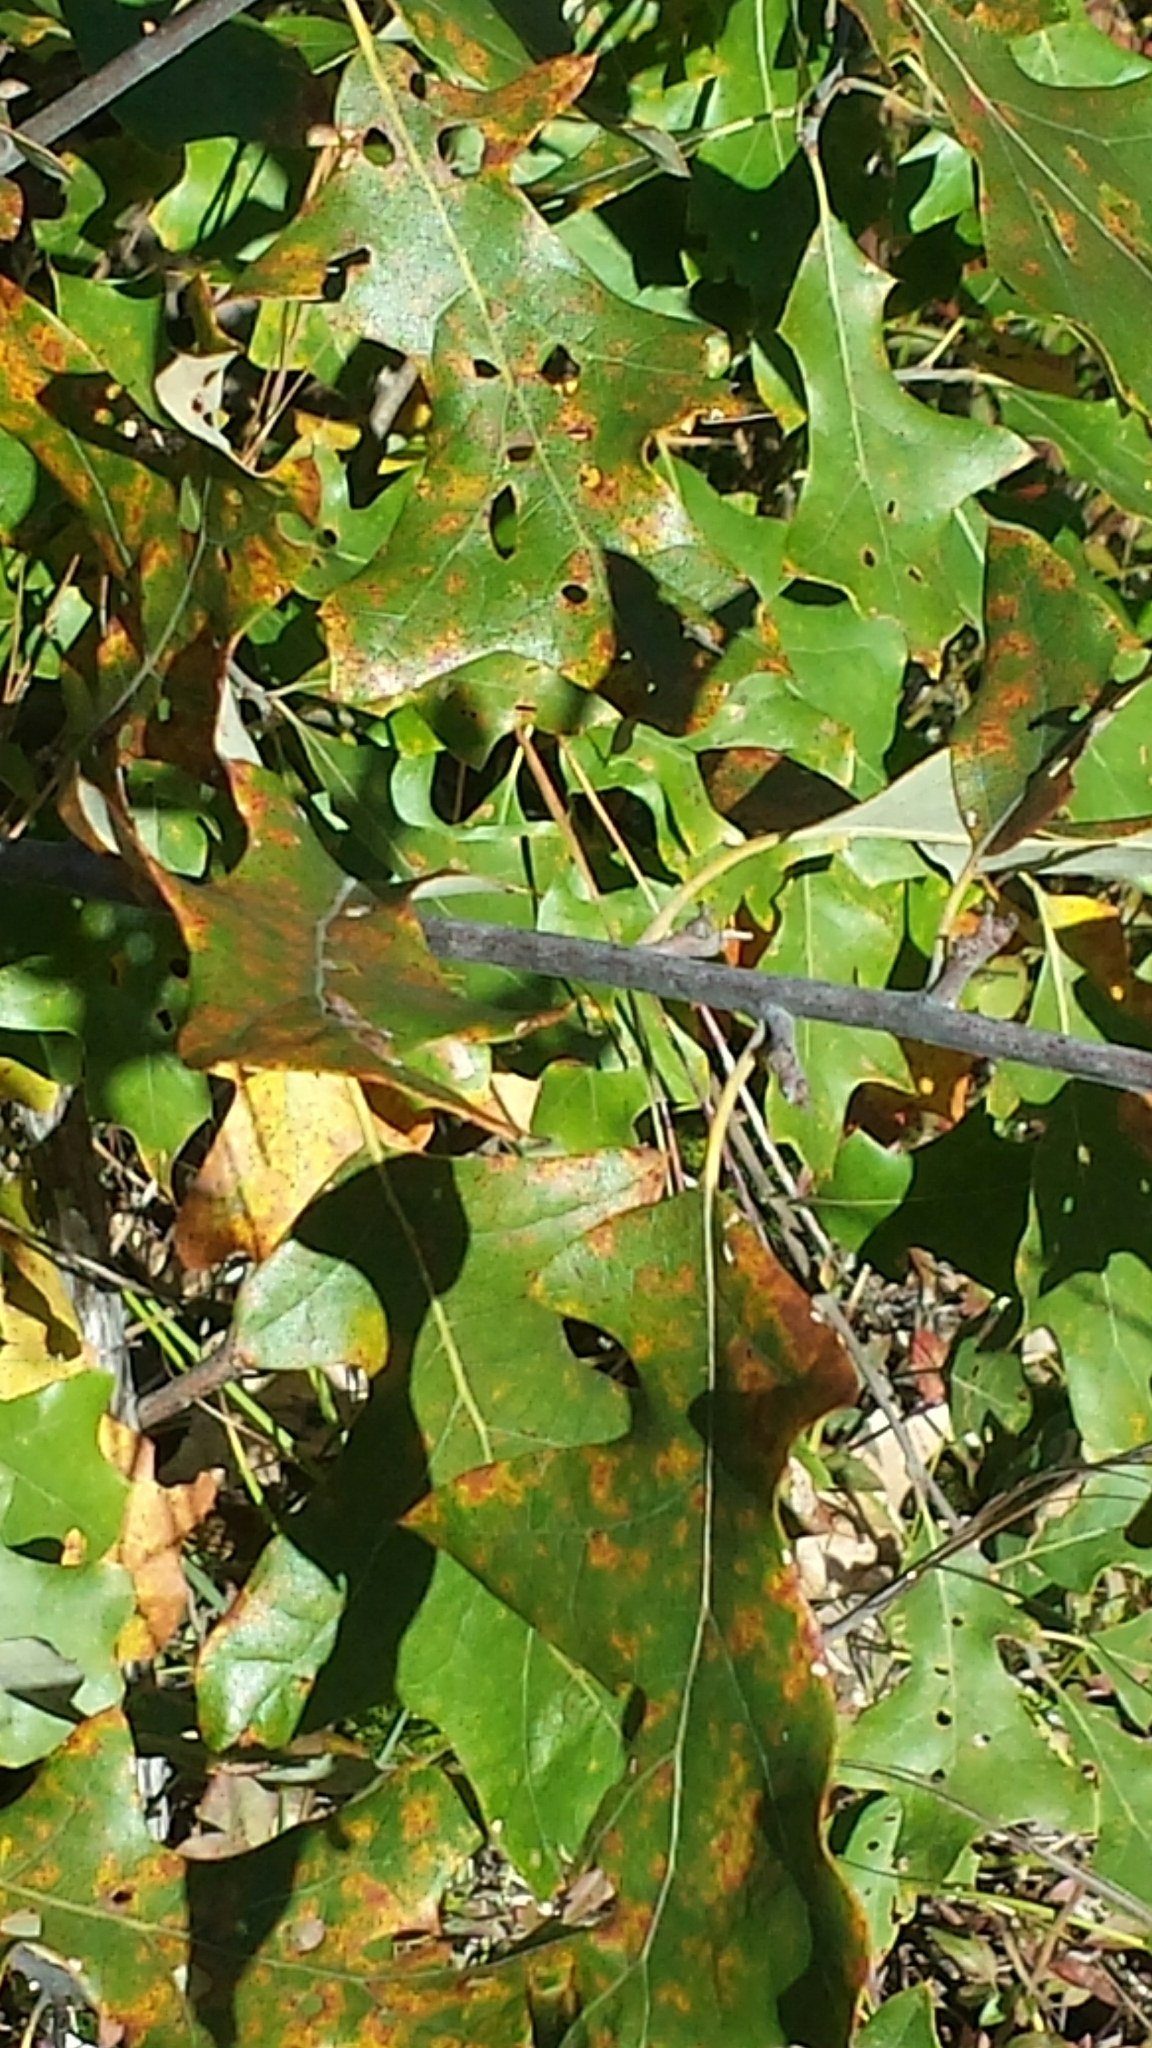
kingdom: Plantae
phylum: Tracheophyta
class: Magnoliopsida
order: Fagales
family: Fagaceae
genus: Quercus
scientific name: Quercus ilicifolia
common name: Bear oak
